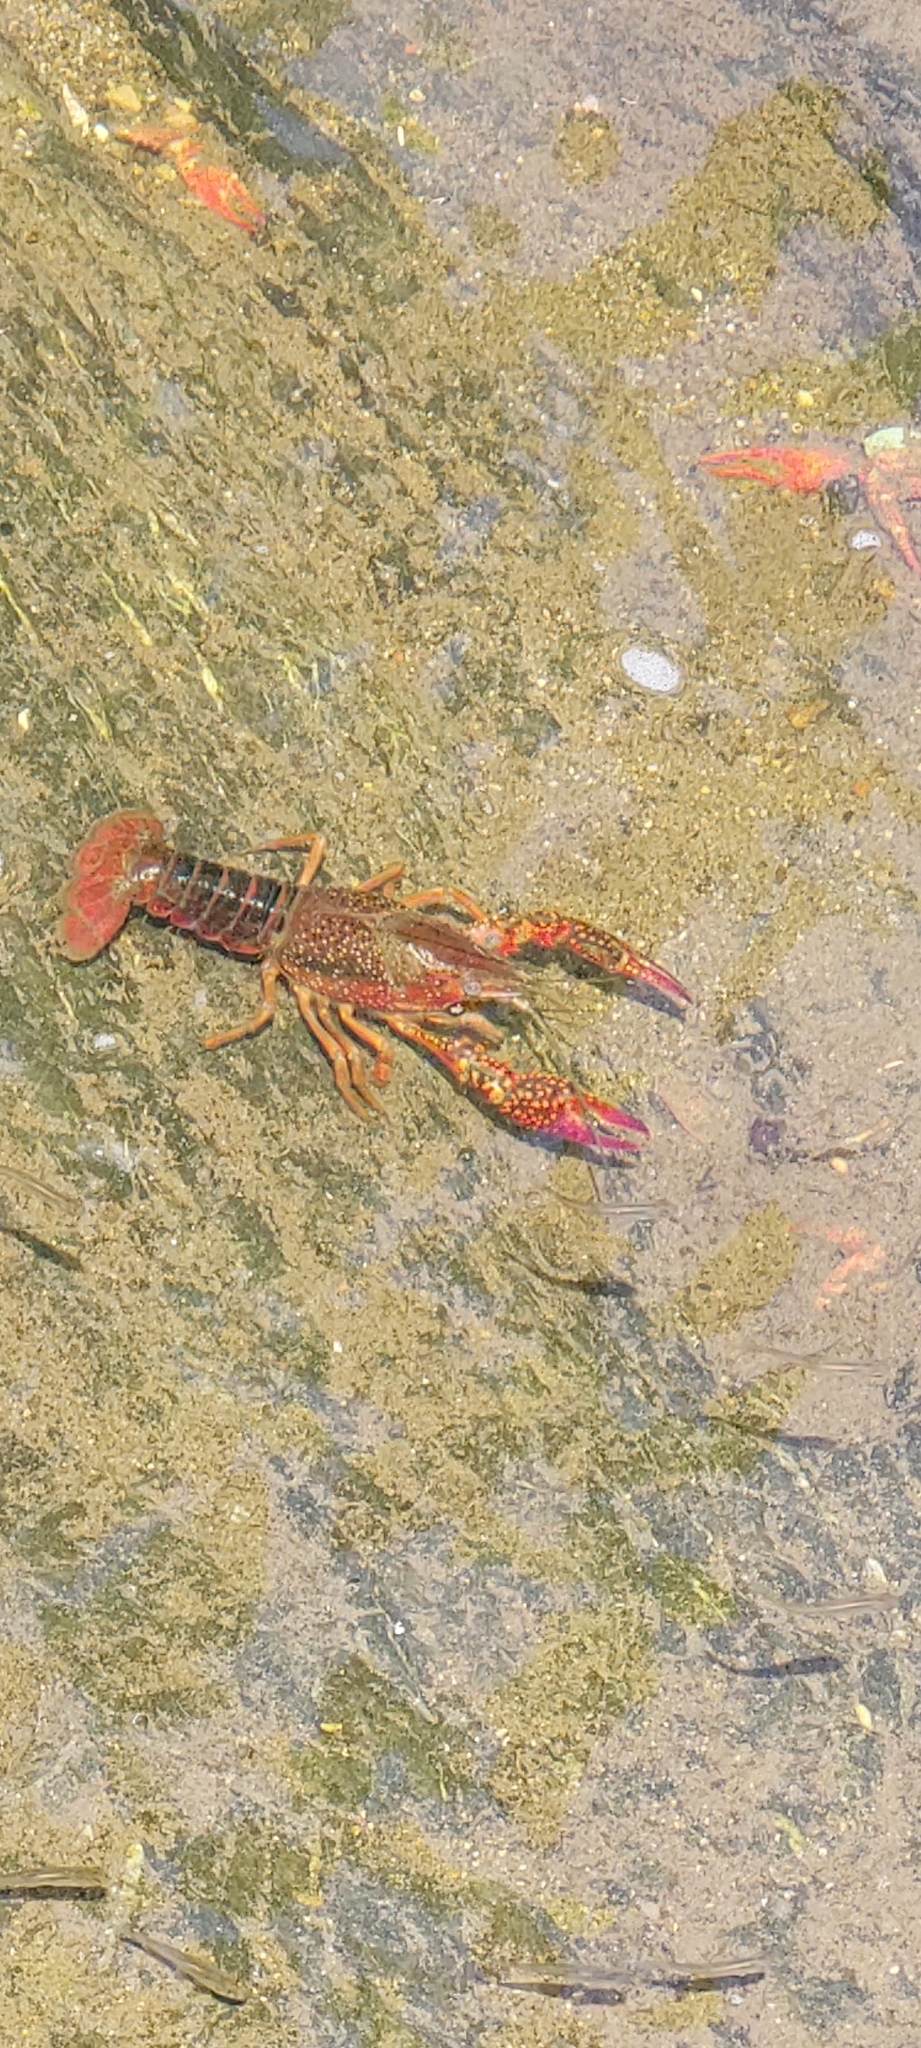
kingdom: Animalia
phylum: Arthropoda
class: Malacostraca
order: Decapoda
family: Cambaridae
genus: Procambarus
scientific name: Procambarus clarkii
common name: Red swamp crayfish
